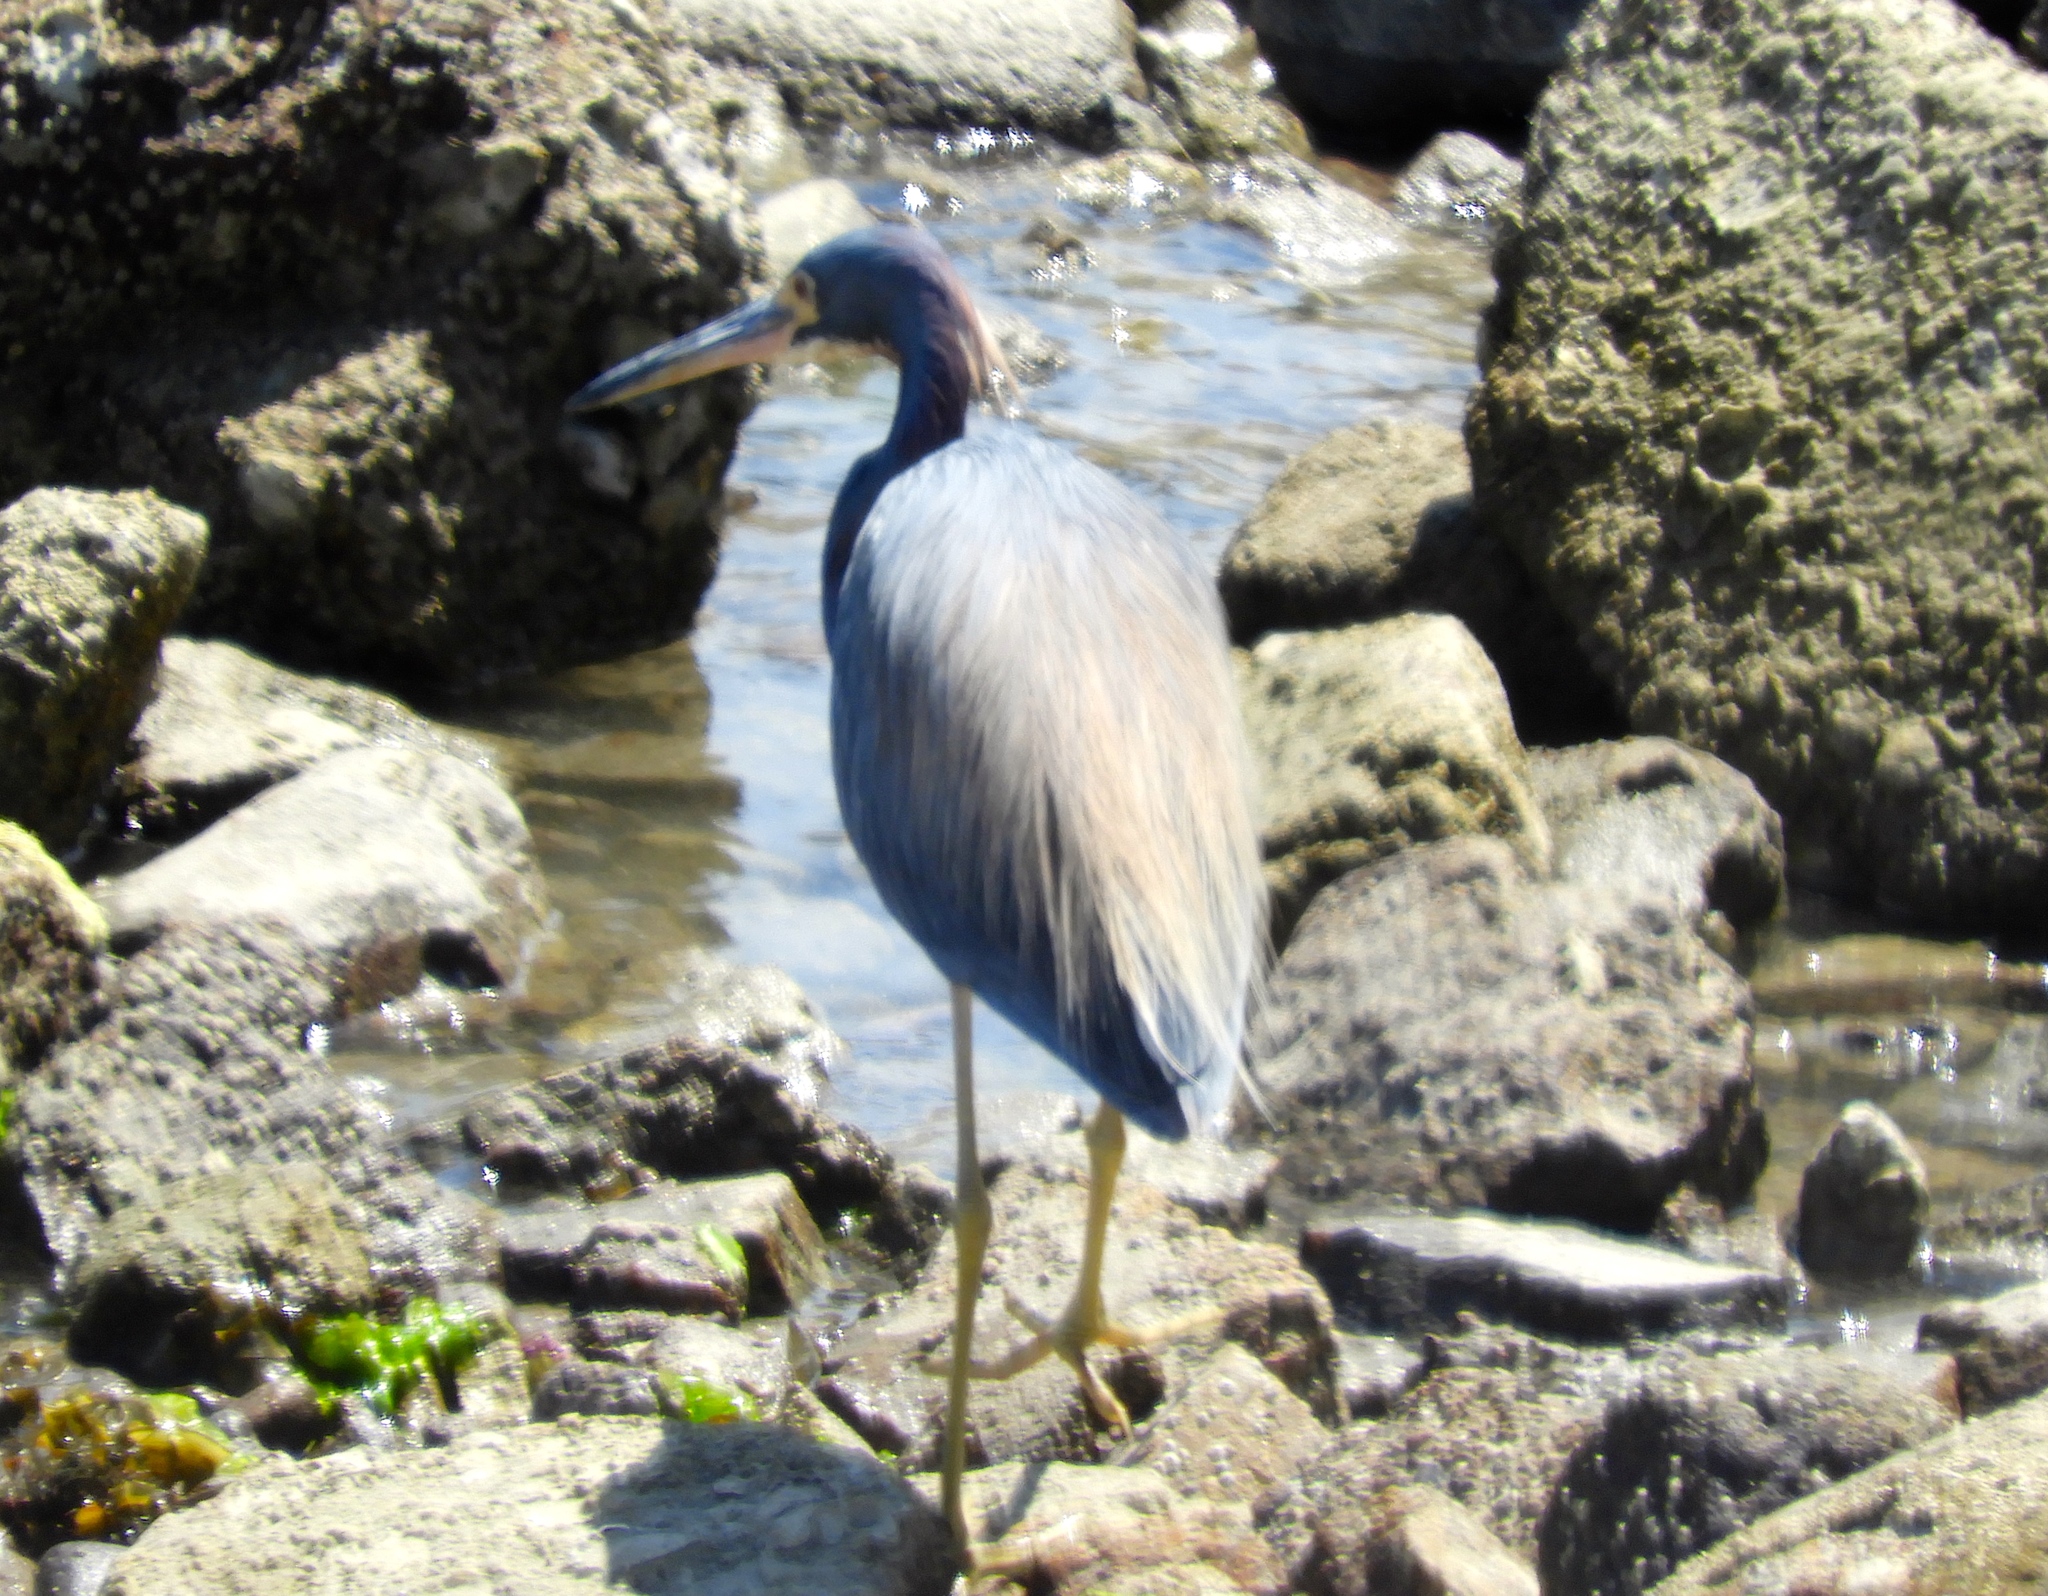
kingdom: Animalia
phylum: Chordata
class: Aves
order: Pelecaniformes
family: Ardeidae
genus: Egretta
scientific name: Egretta tricolor
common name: Tricolored heron
